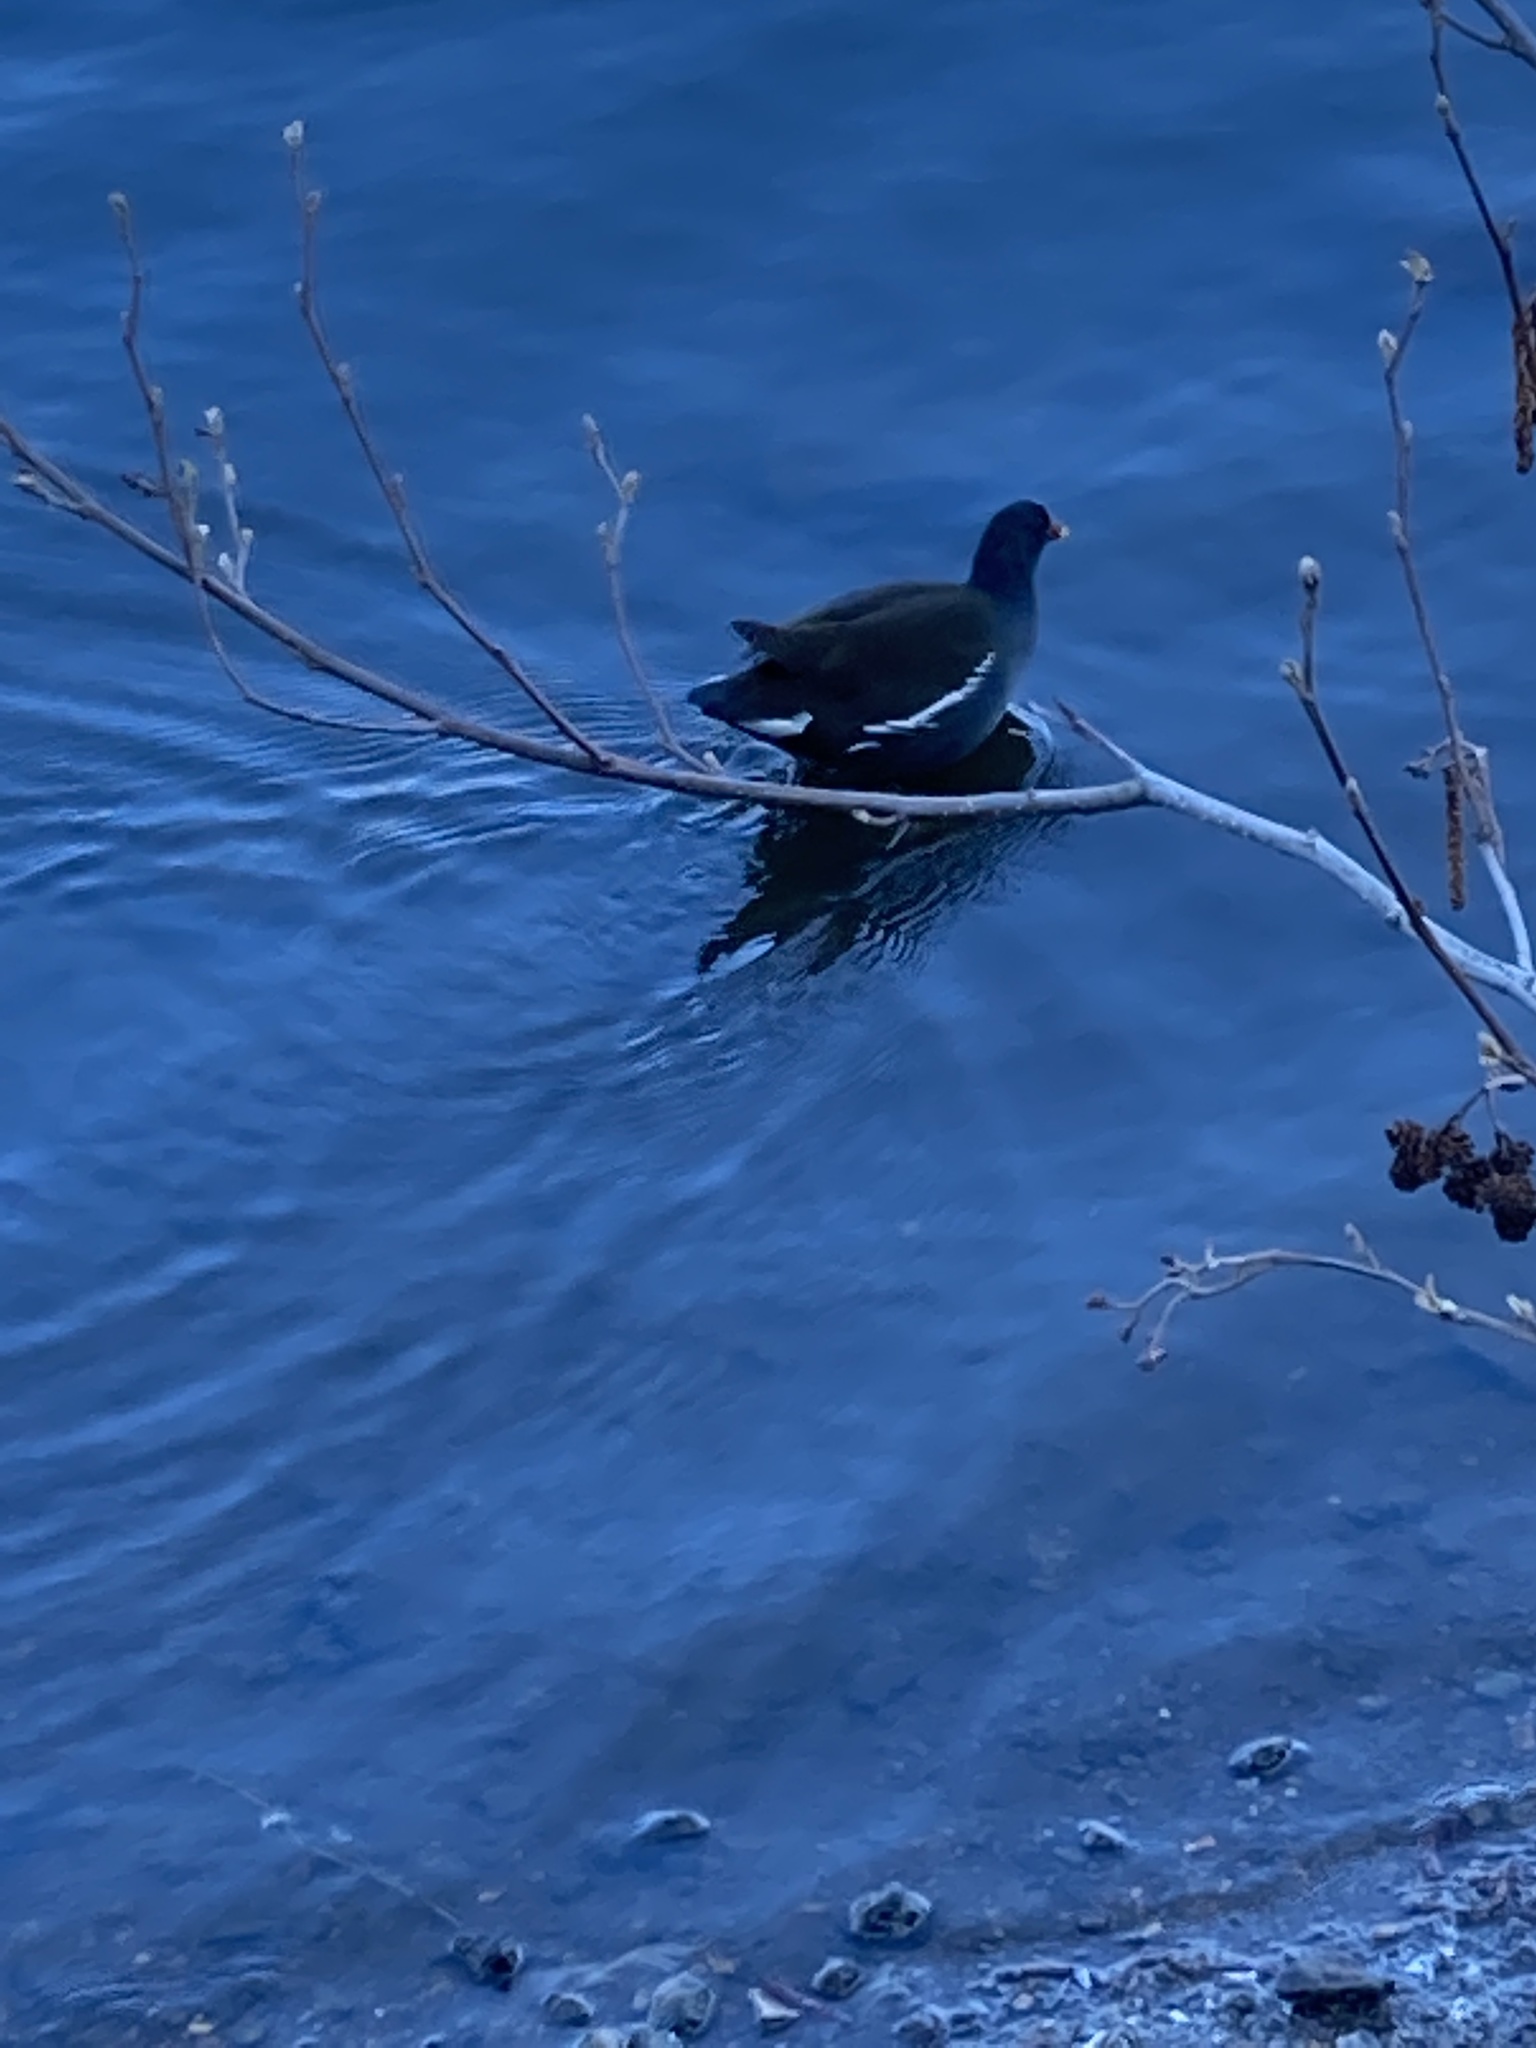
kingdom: Animalia
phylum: Chordata
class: Aves
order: Gruiformes
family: Rallidae
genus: Gallinula
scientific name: Gallinula chloropus
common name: Common moorhen
